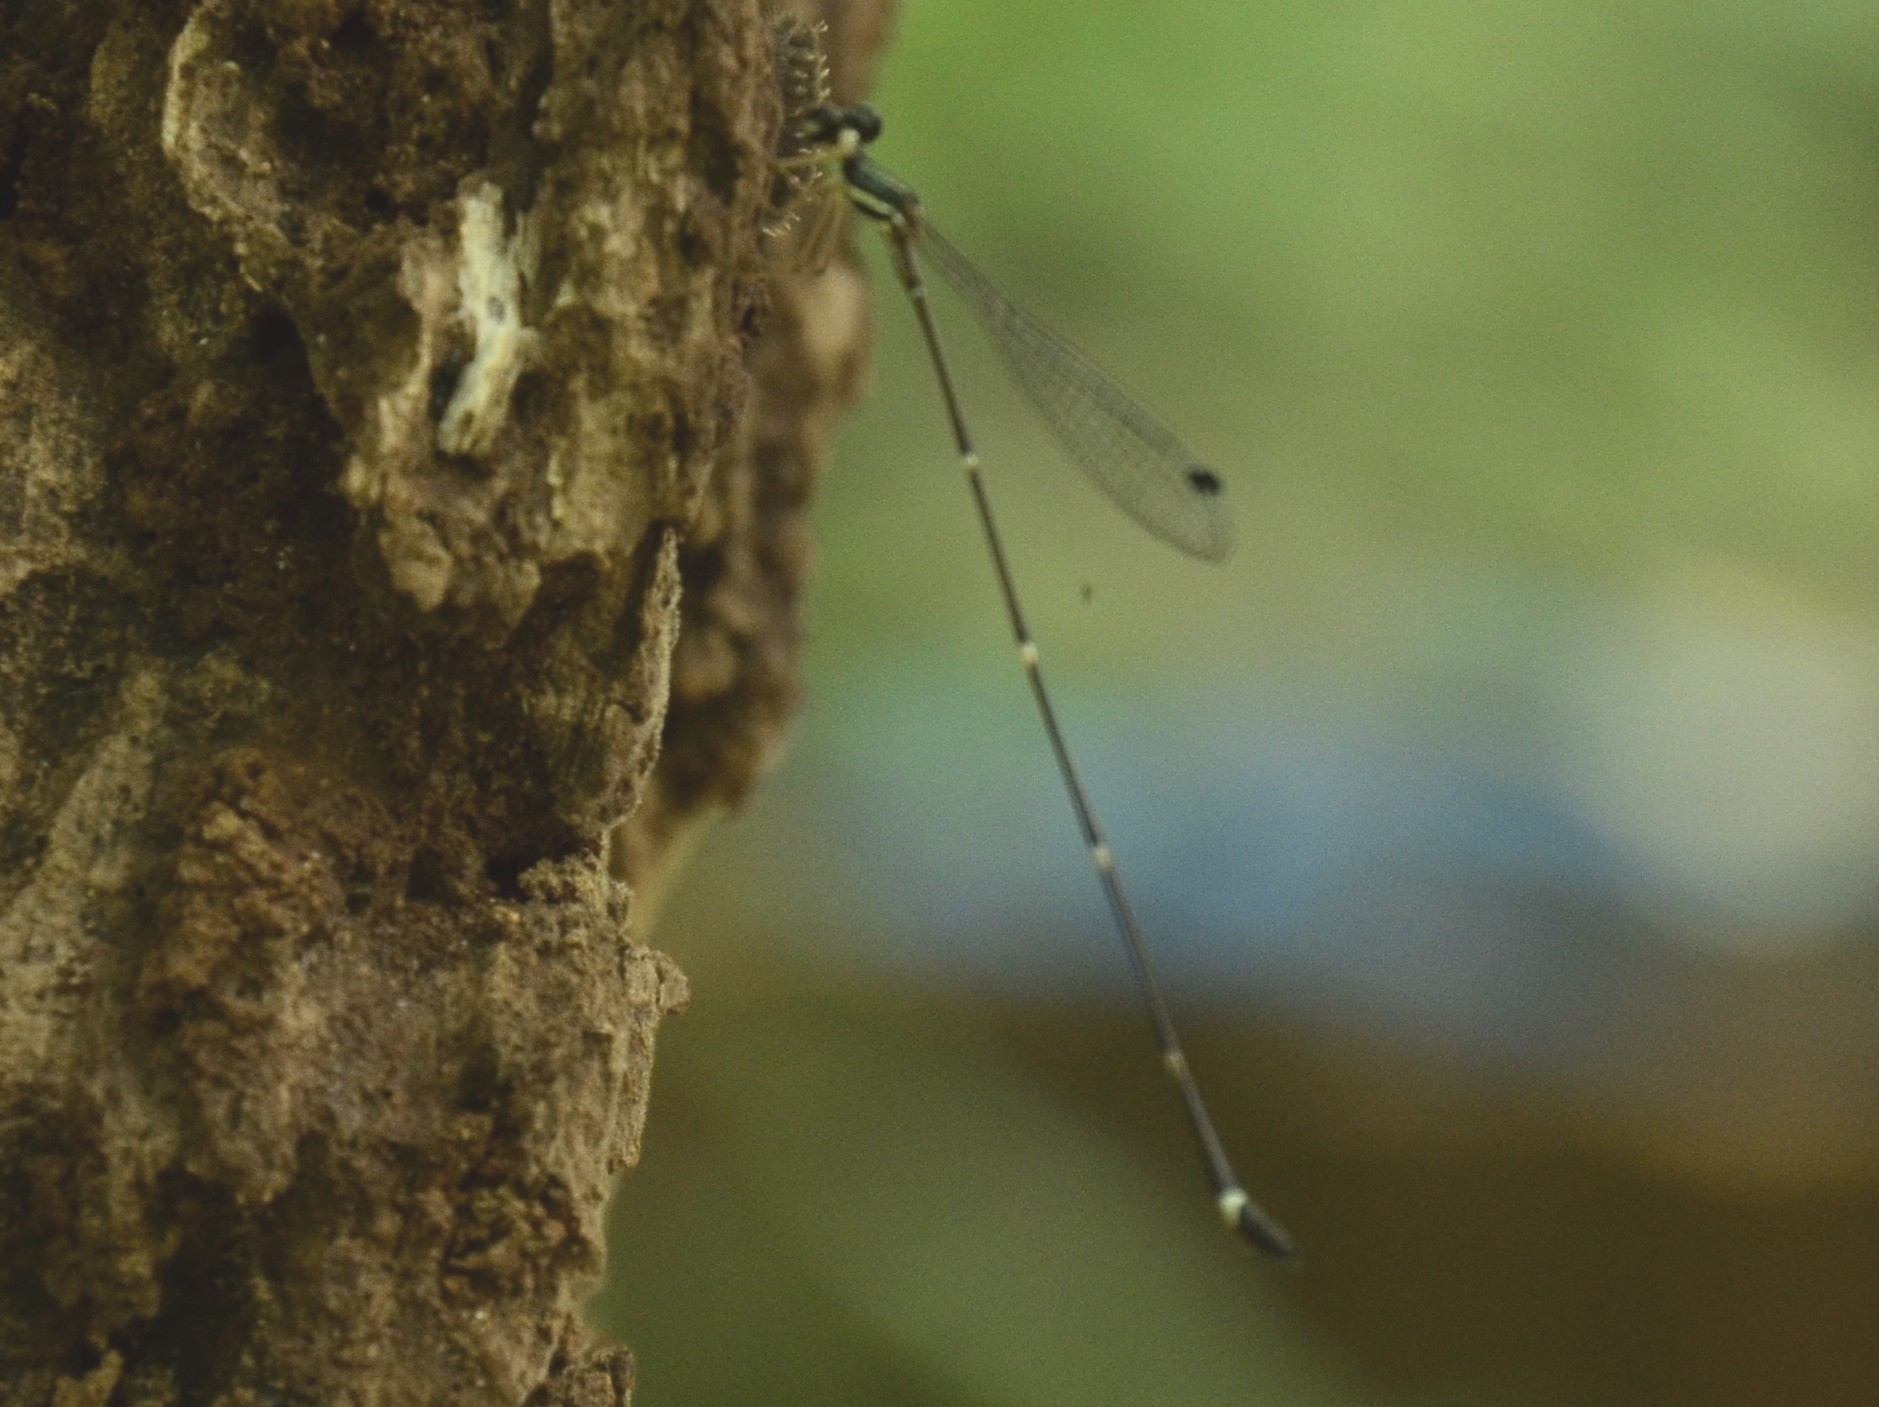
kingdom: Animalia
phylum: Arthropoda
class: Insecta
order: Odonata
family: Platystictidae
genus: Protosticta
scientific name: Protosticta gravelyi
